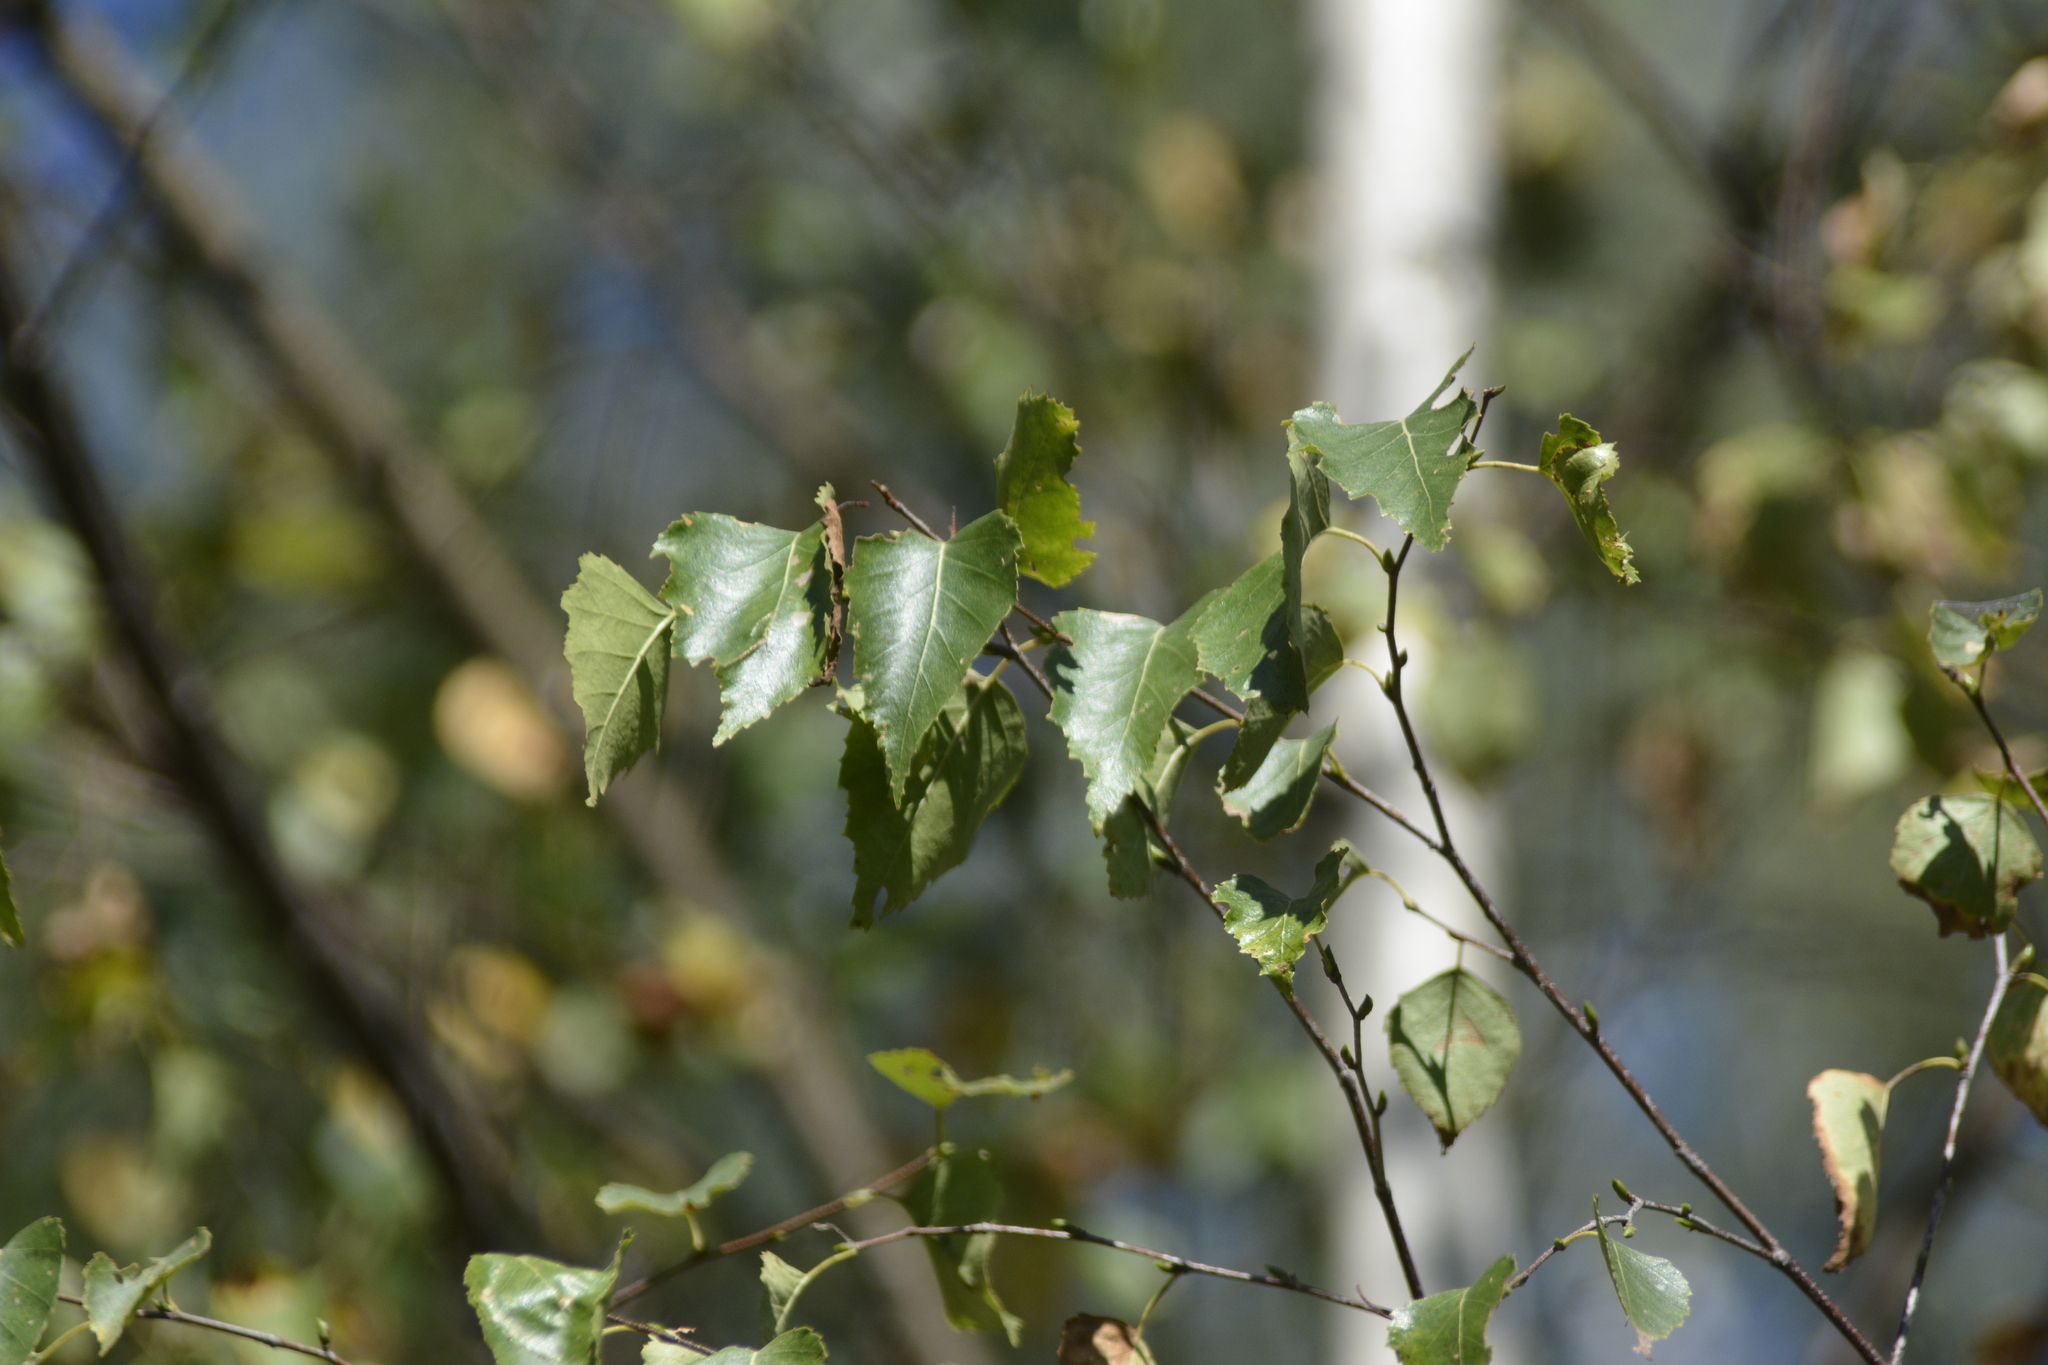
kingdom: Plantae
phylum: Tracheophyta
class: Magnoliopsida
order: Fagales
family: Betulaceae
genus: Betula
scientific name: Betula pendula
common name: Silver birch
